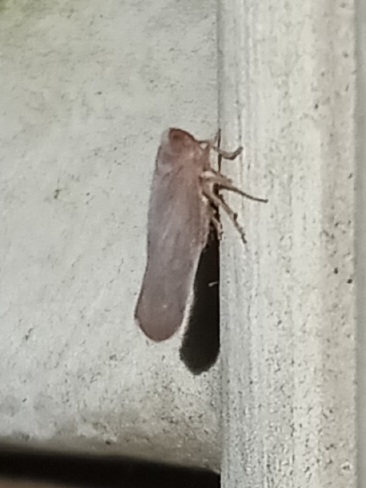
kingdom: Animalia
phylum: Arthropoda
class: Insecta
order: Hemiptera
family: Derbidae
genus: Omolicna
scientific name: Omolicna mcateei
